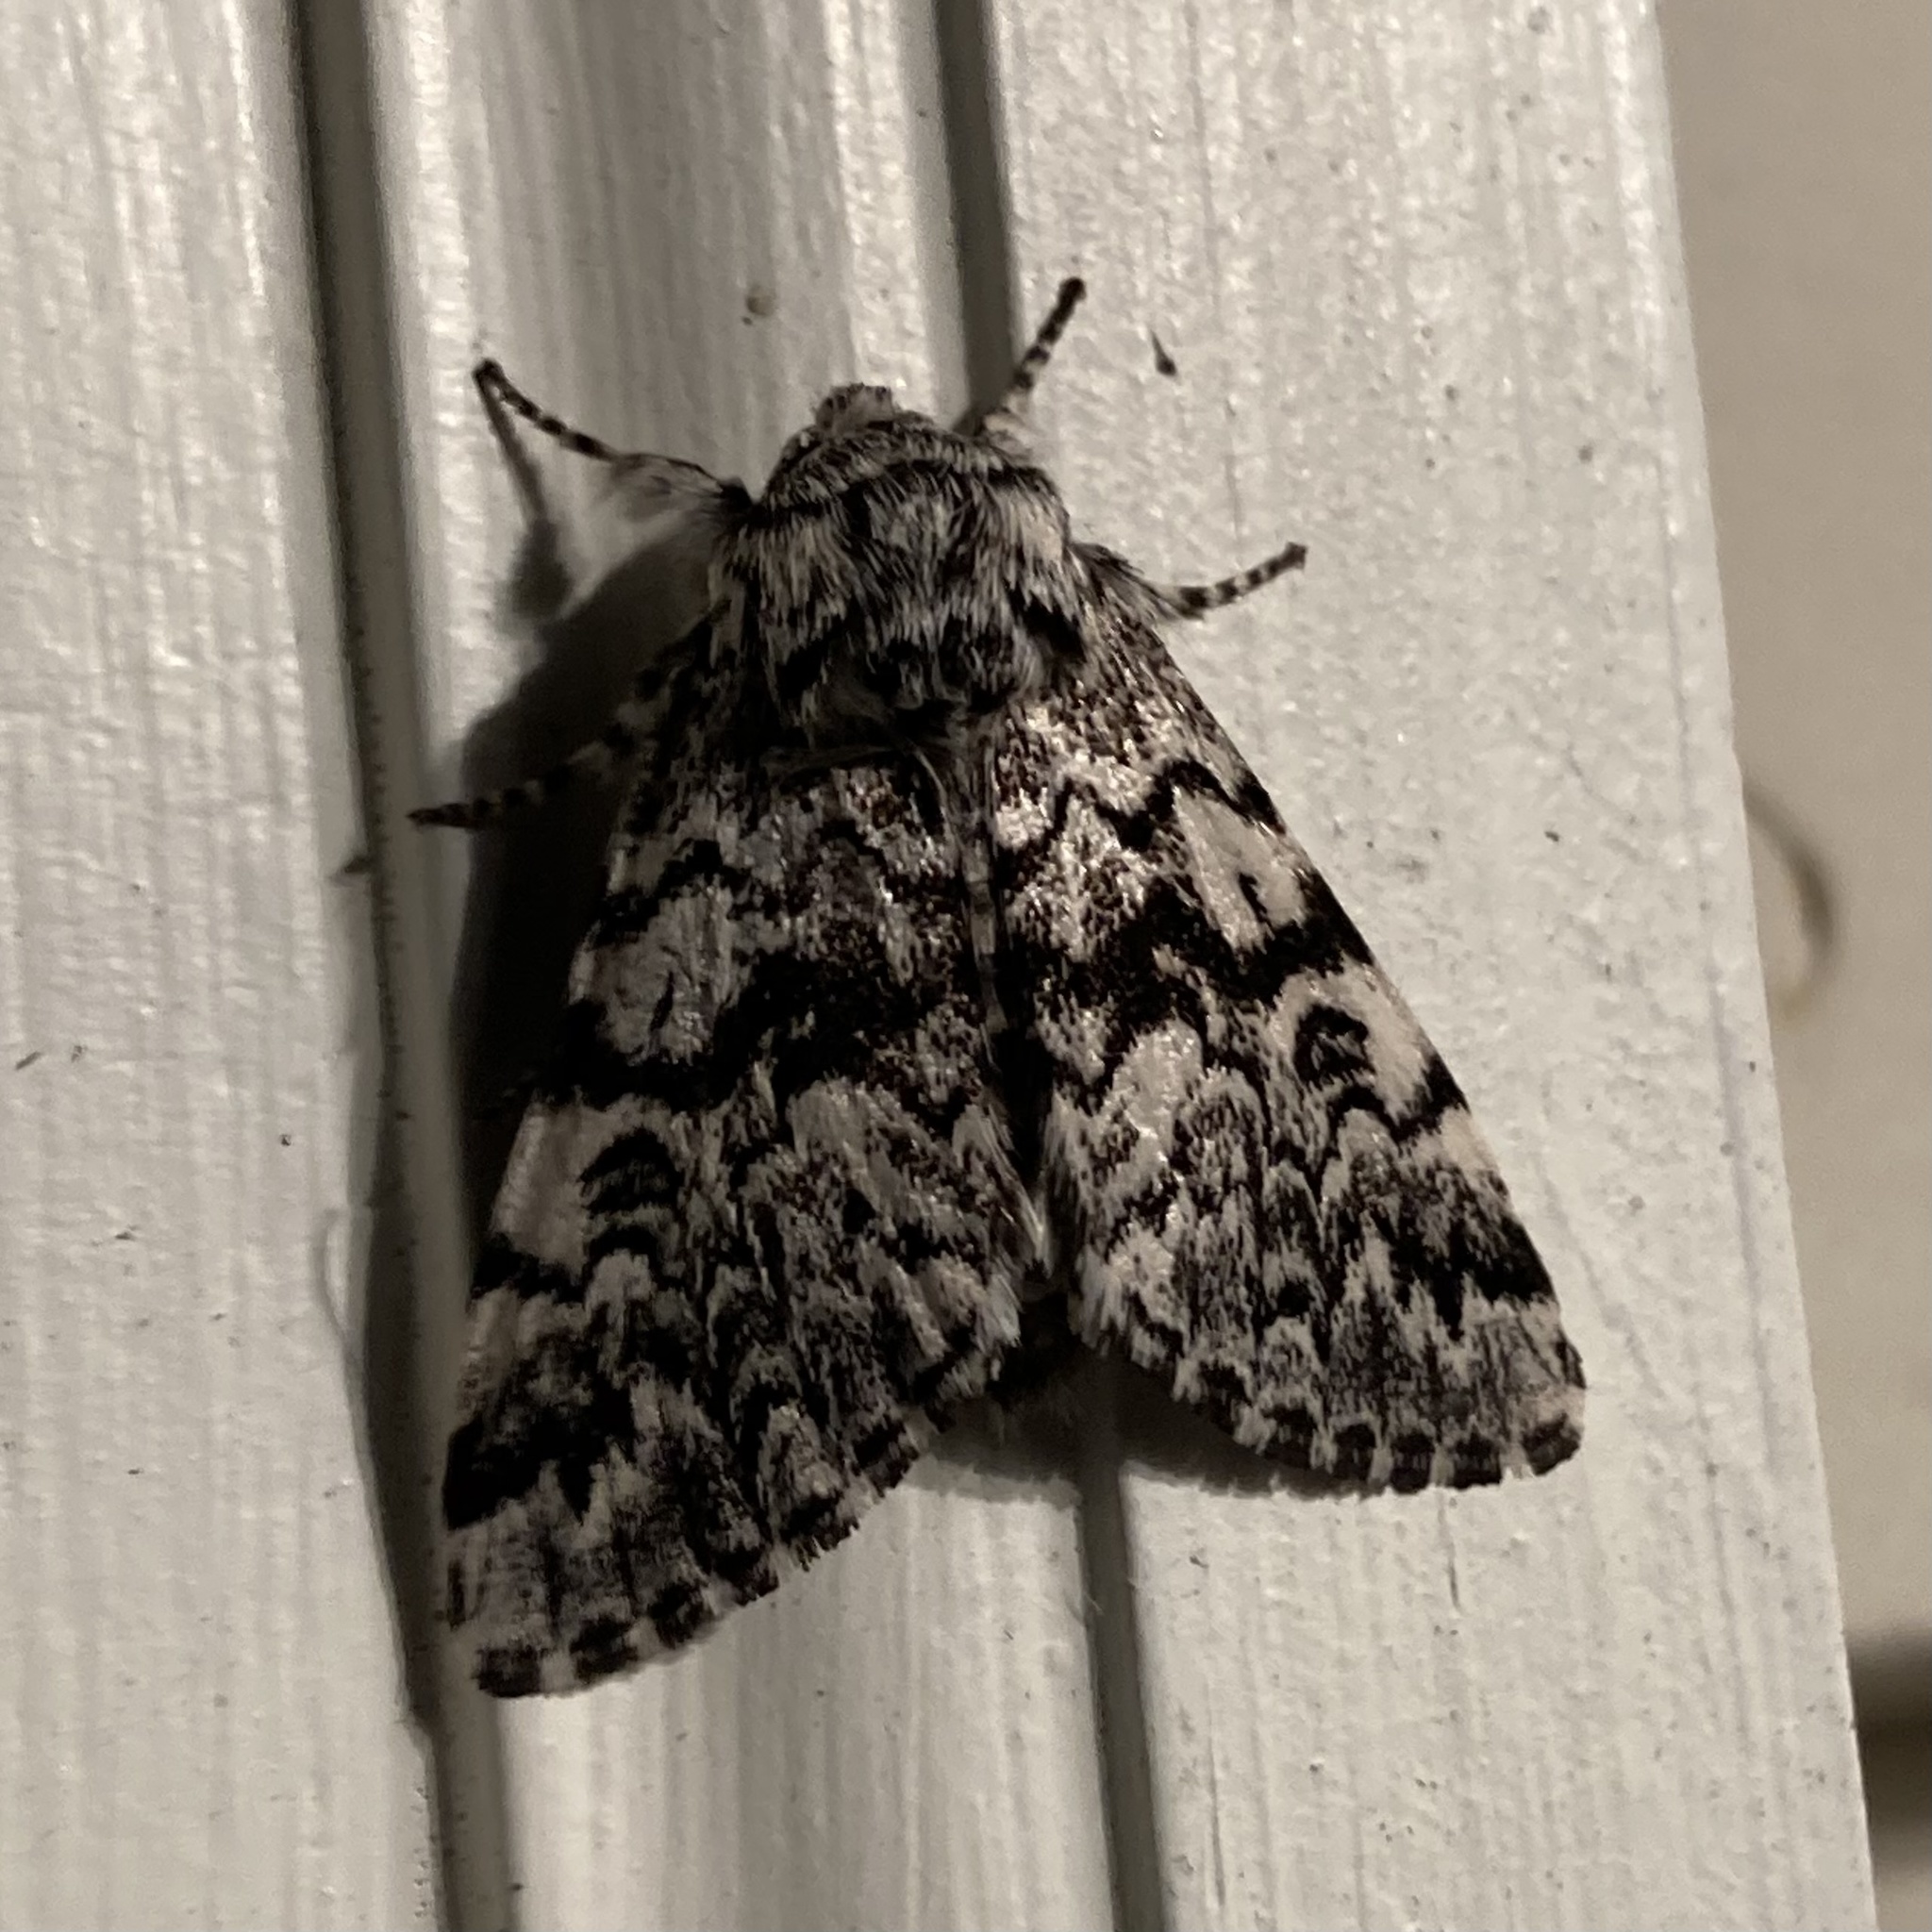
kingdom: Animalia
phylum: Arthropoda
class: Insecta
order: Lepidoptera
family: Noctuidae
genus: Panthea
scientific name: Panthea acronyctoides
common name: Black zigzag moth
